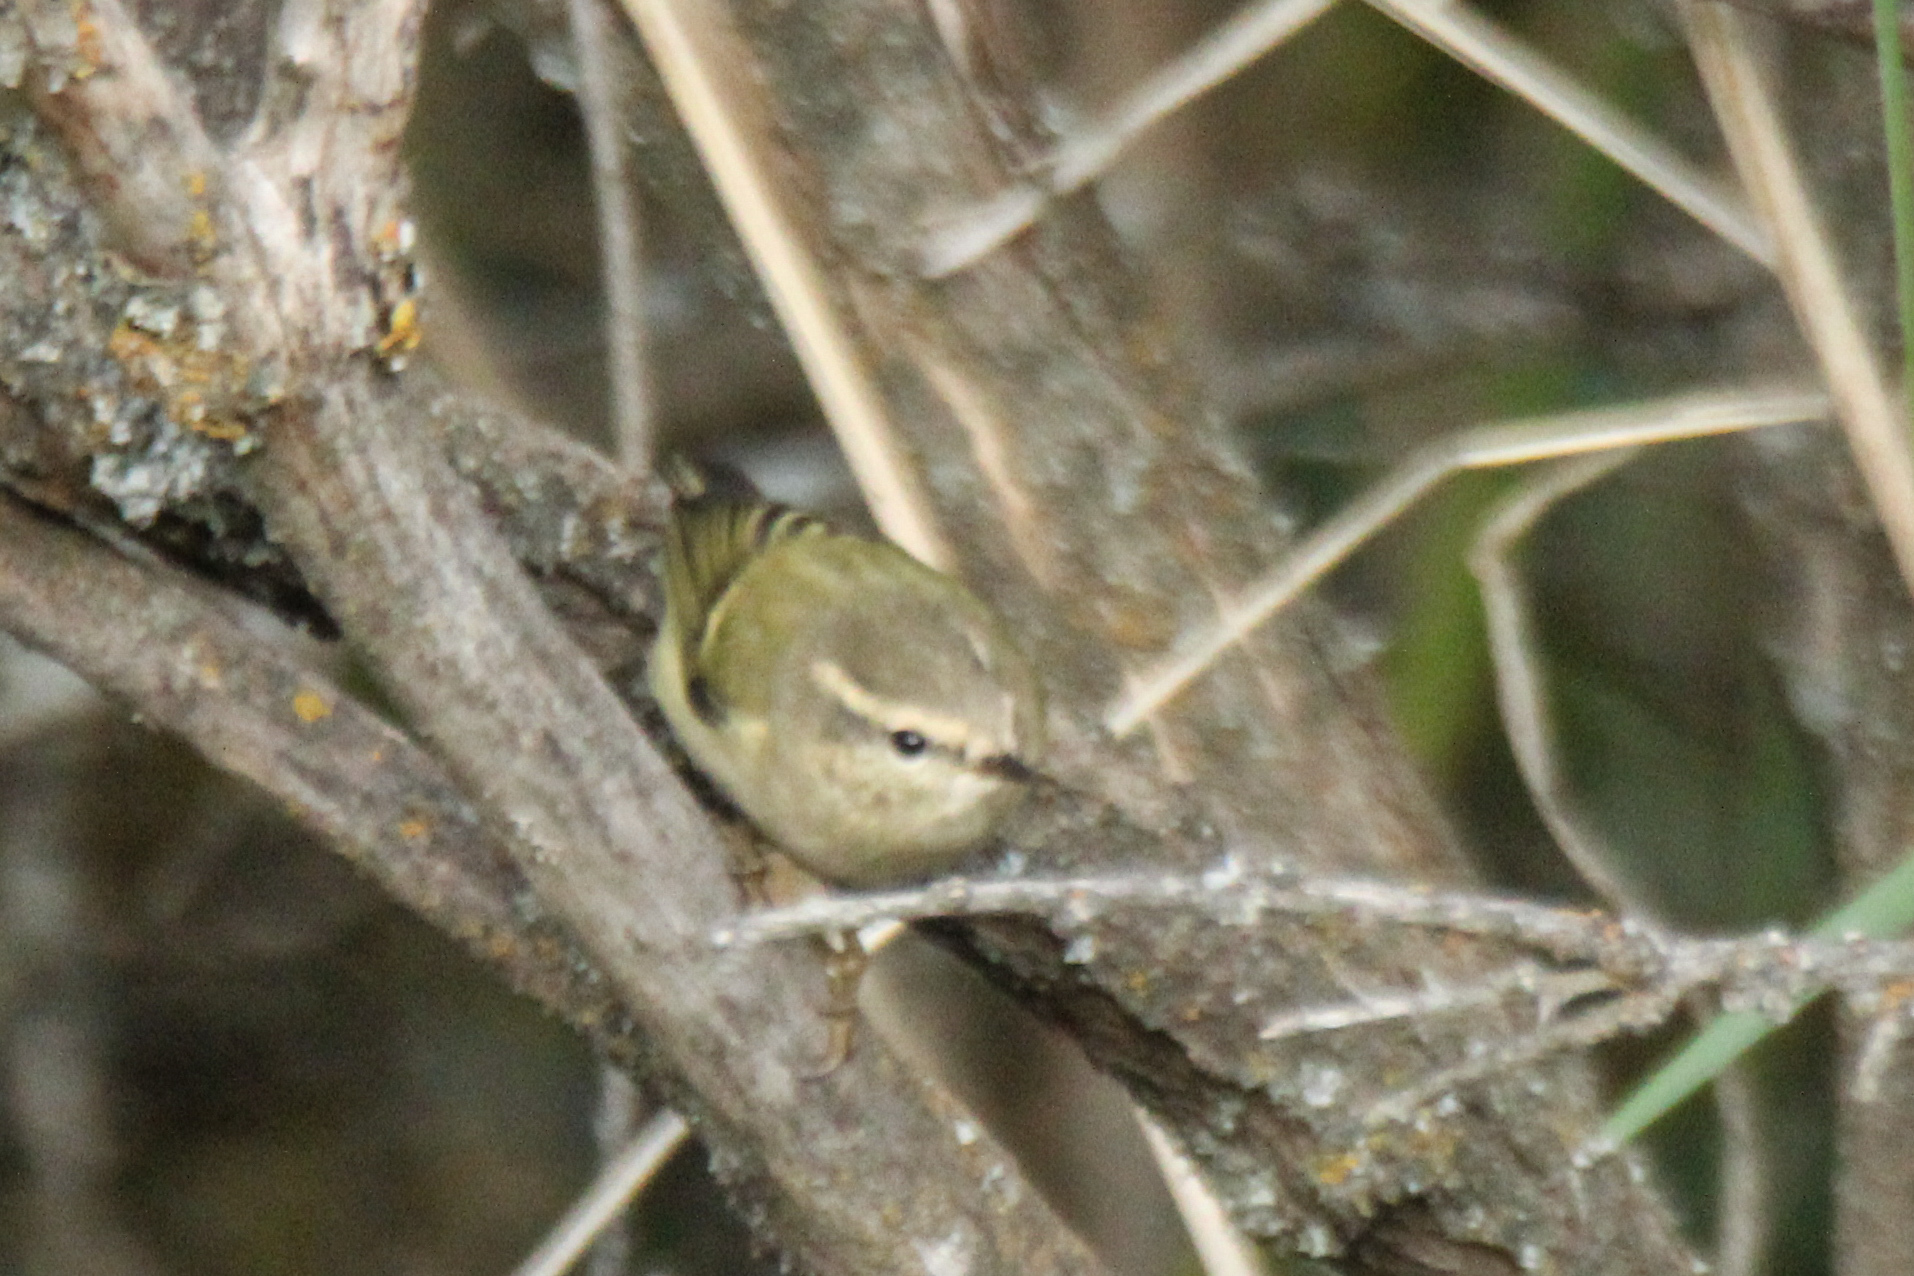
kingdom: Animalia
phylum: Chordata
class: Aves
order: Passeriformes
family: Phylloscopidae
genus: Phylloscopus
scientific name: Phylloscopus humei
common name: Hume's leaf warbler
